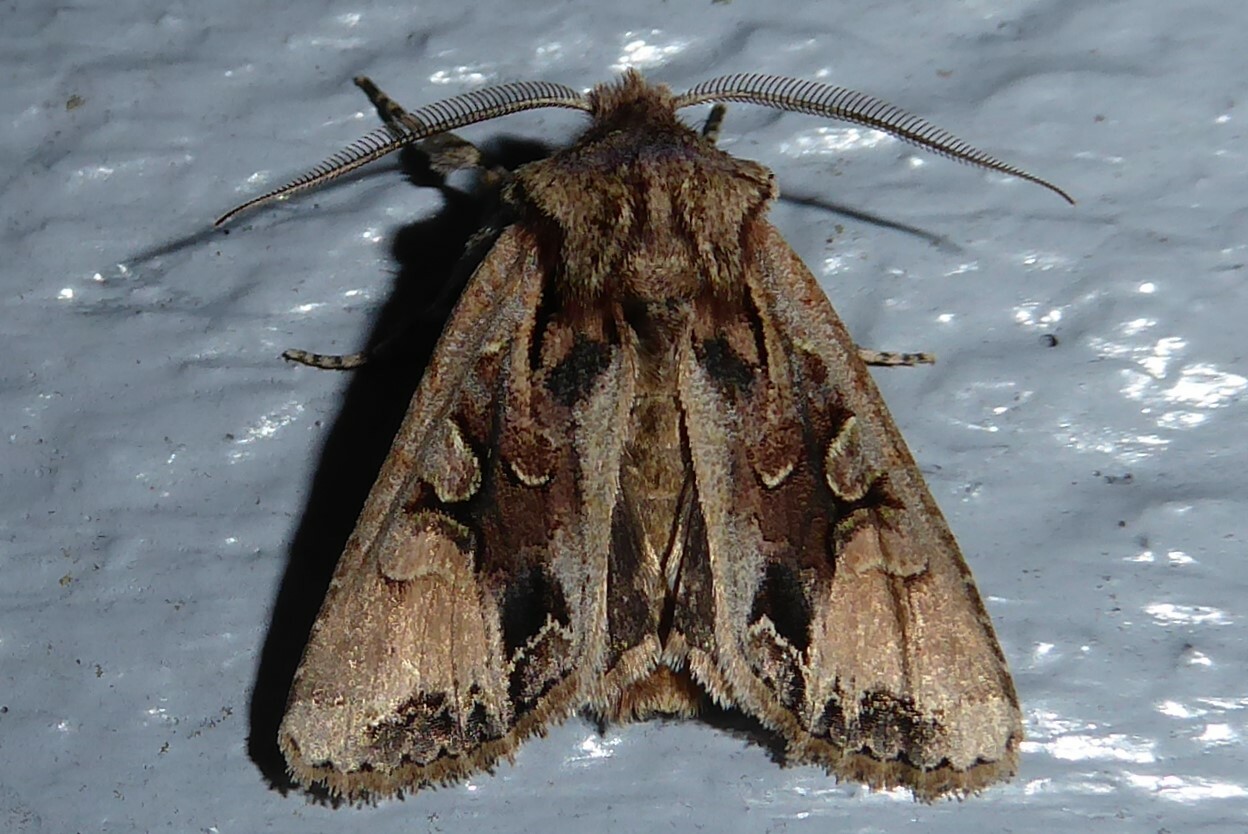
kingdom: Animalia
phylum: Arthropoda
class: Insecta
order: Lepidoptera
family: Noctuidae
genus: Ichneutica
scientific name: Ichneutica
